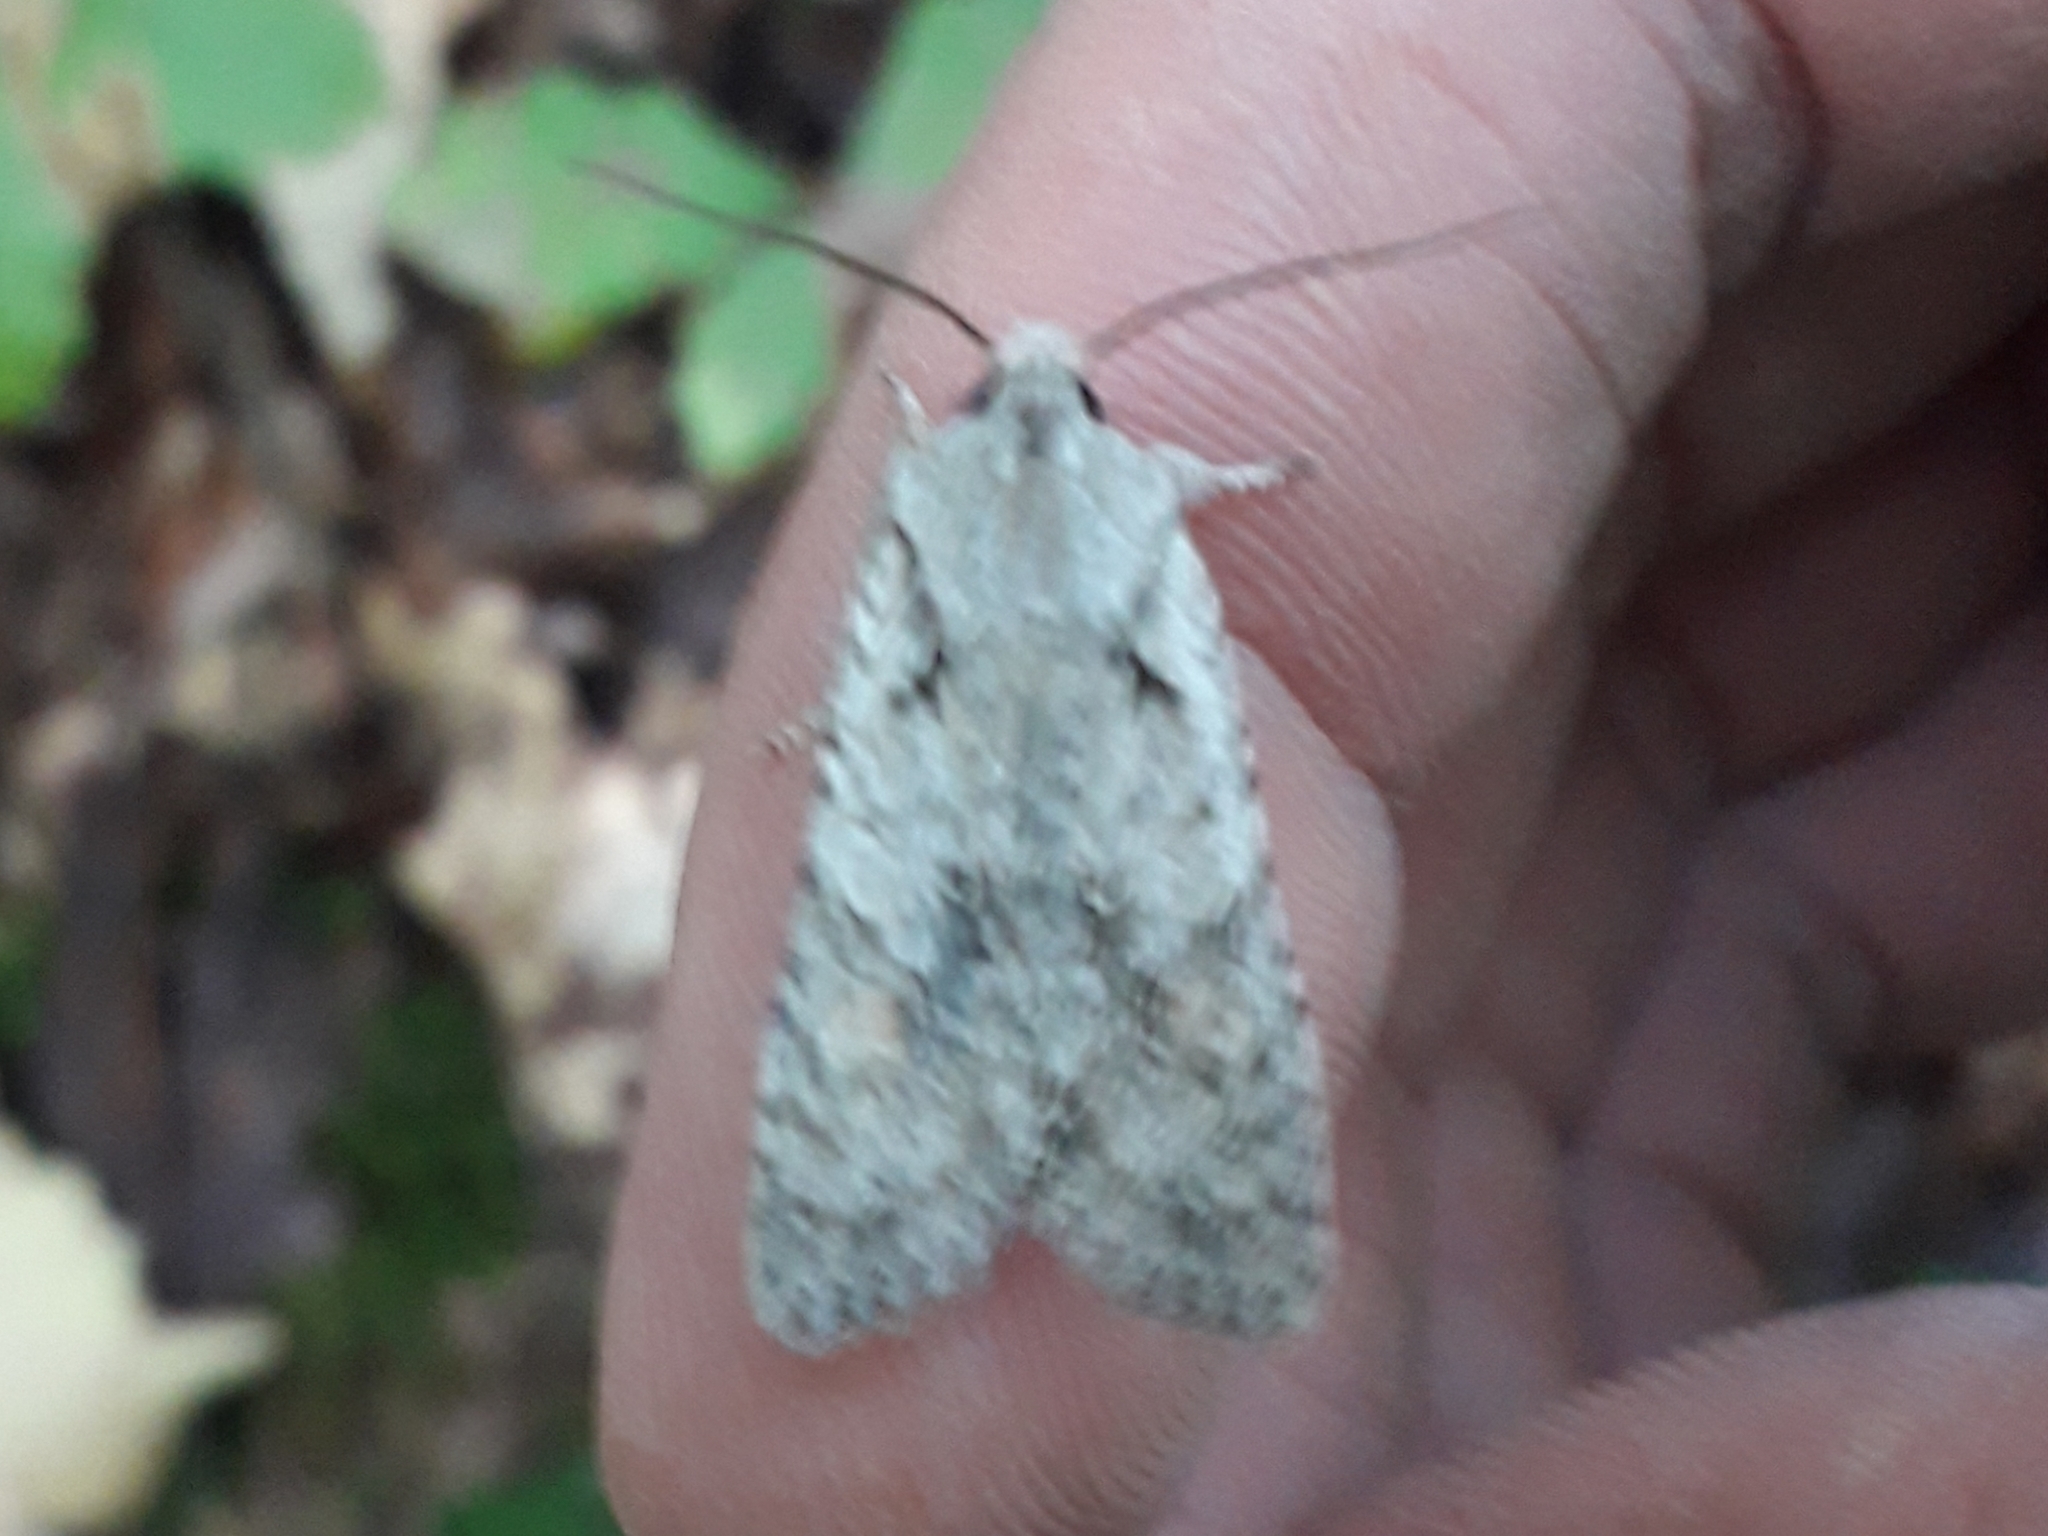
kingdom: Animalia
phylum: Arthropoda
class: Insecta
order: Lepidoptera
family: Noctuidae
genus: Lithophane
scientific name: Lithophane ornitopus
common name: Grey shoulder-knot
